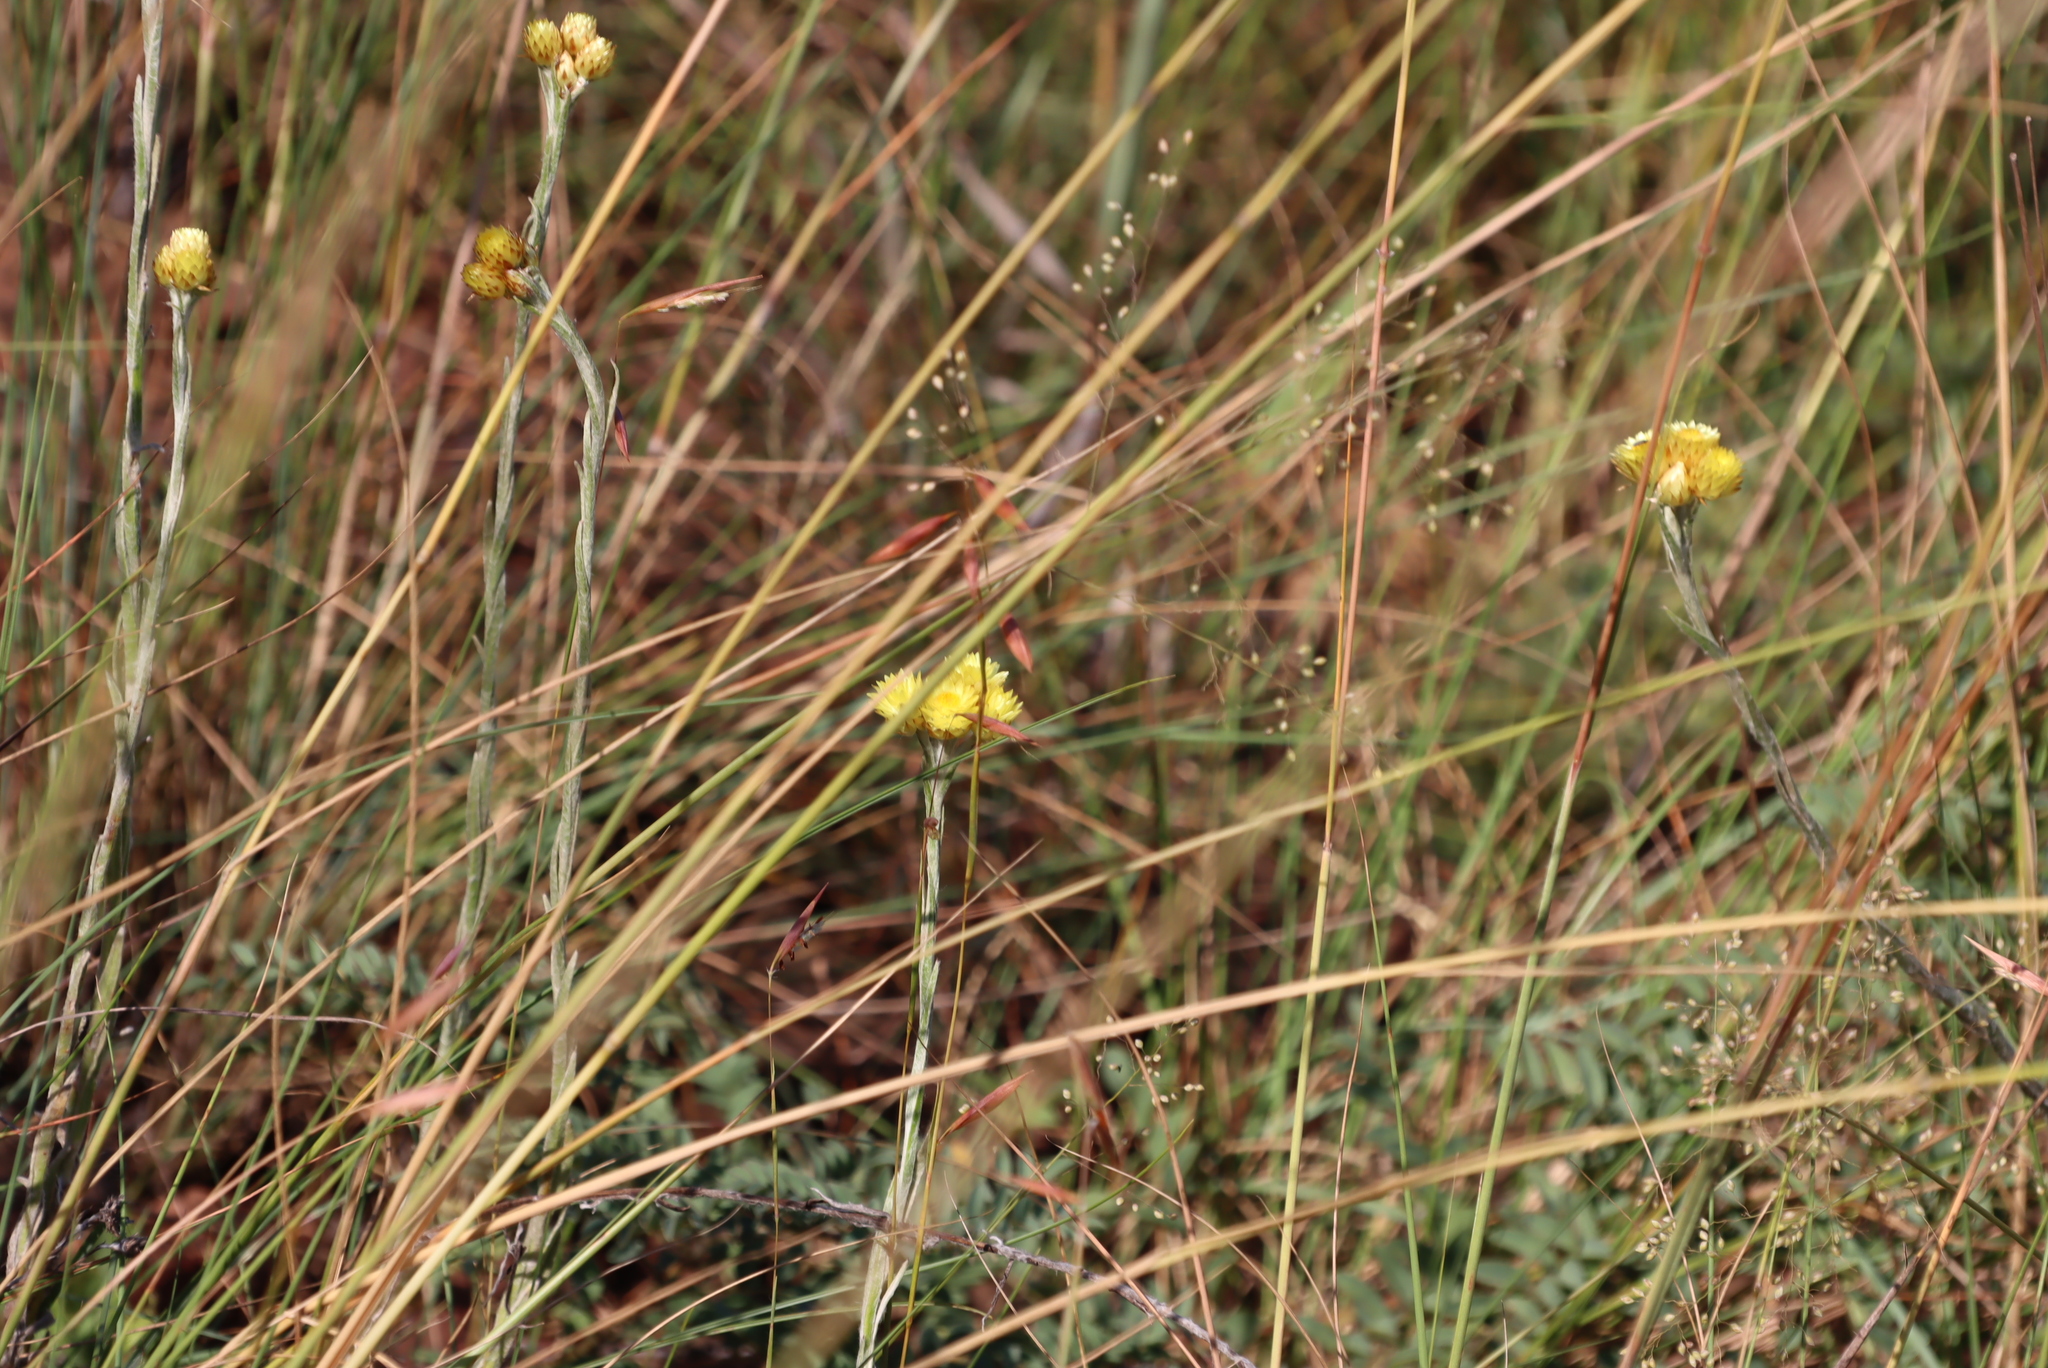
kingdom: Plantae
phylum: Tracheophyta
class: Magnoliopsida
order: Asterales
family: Asteraceae
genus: Helichrysum
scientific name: Helichrysum mixtum
